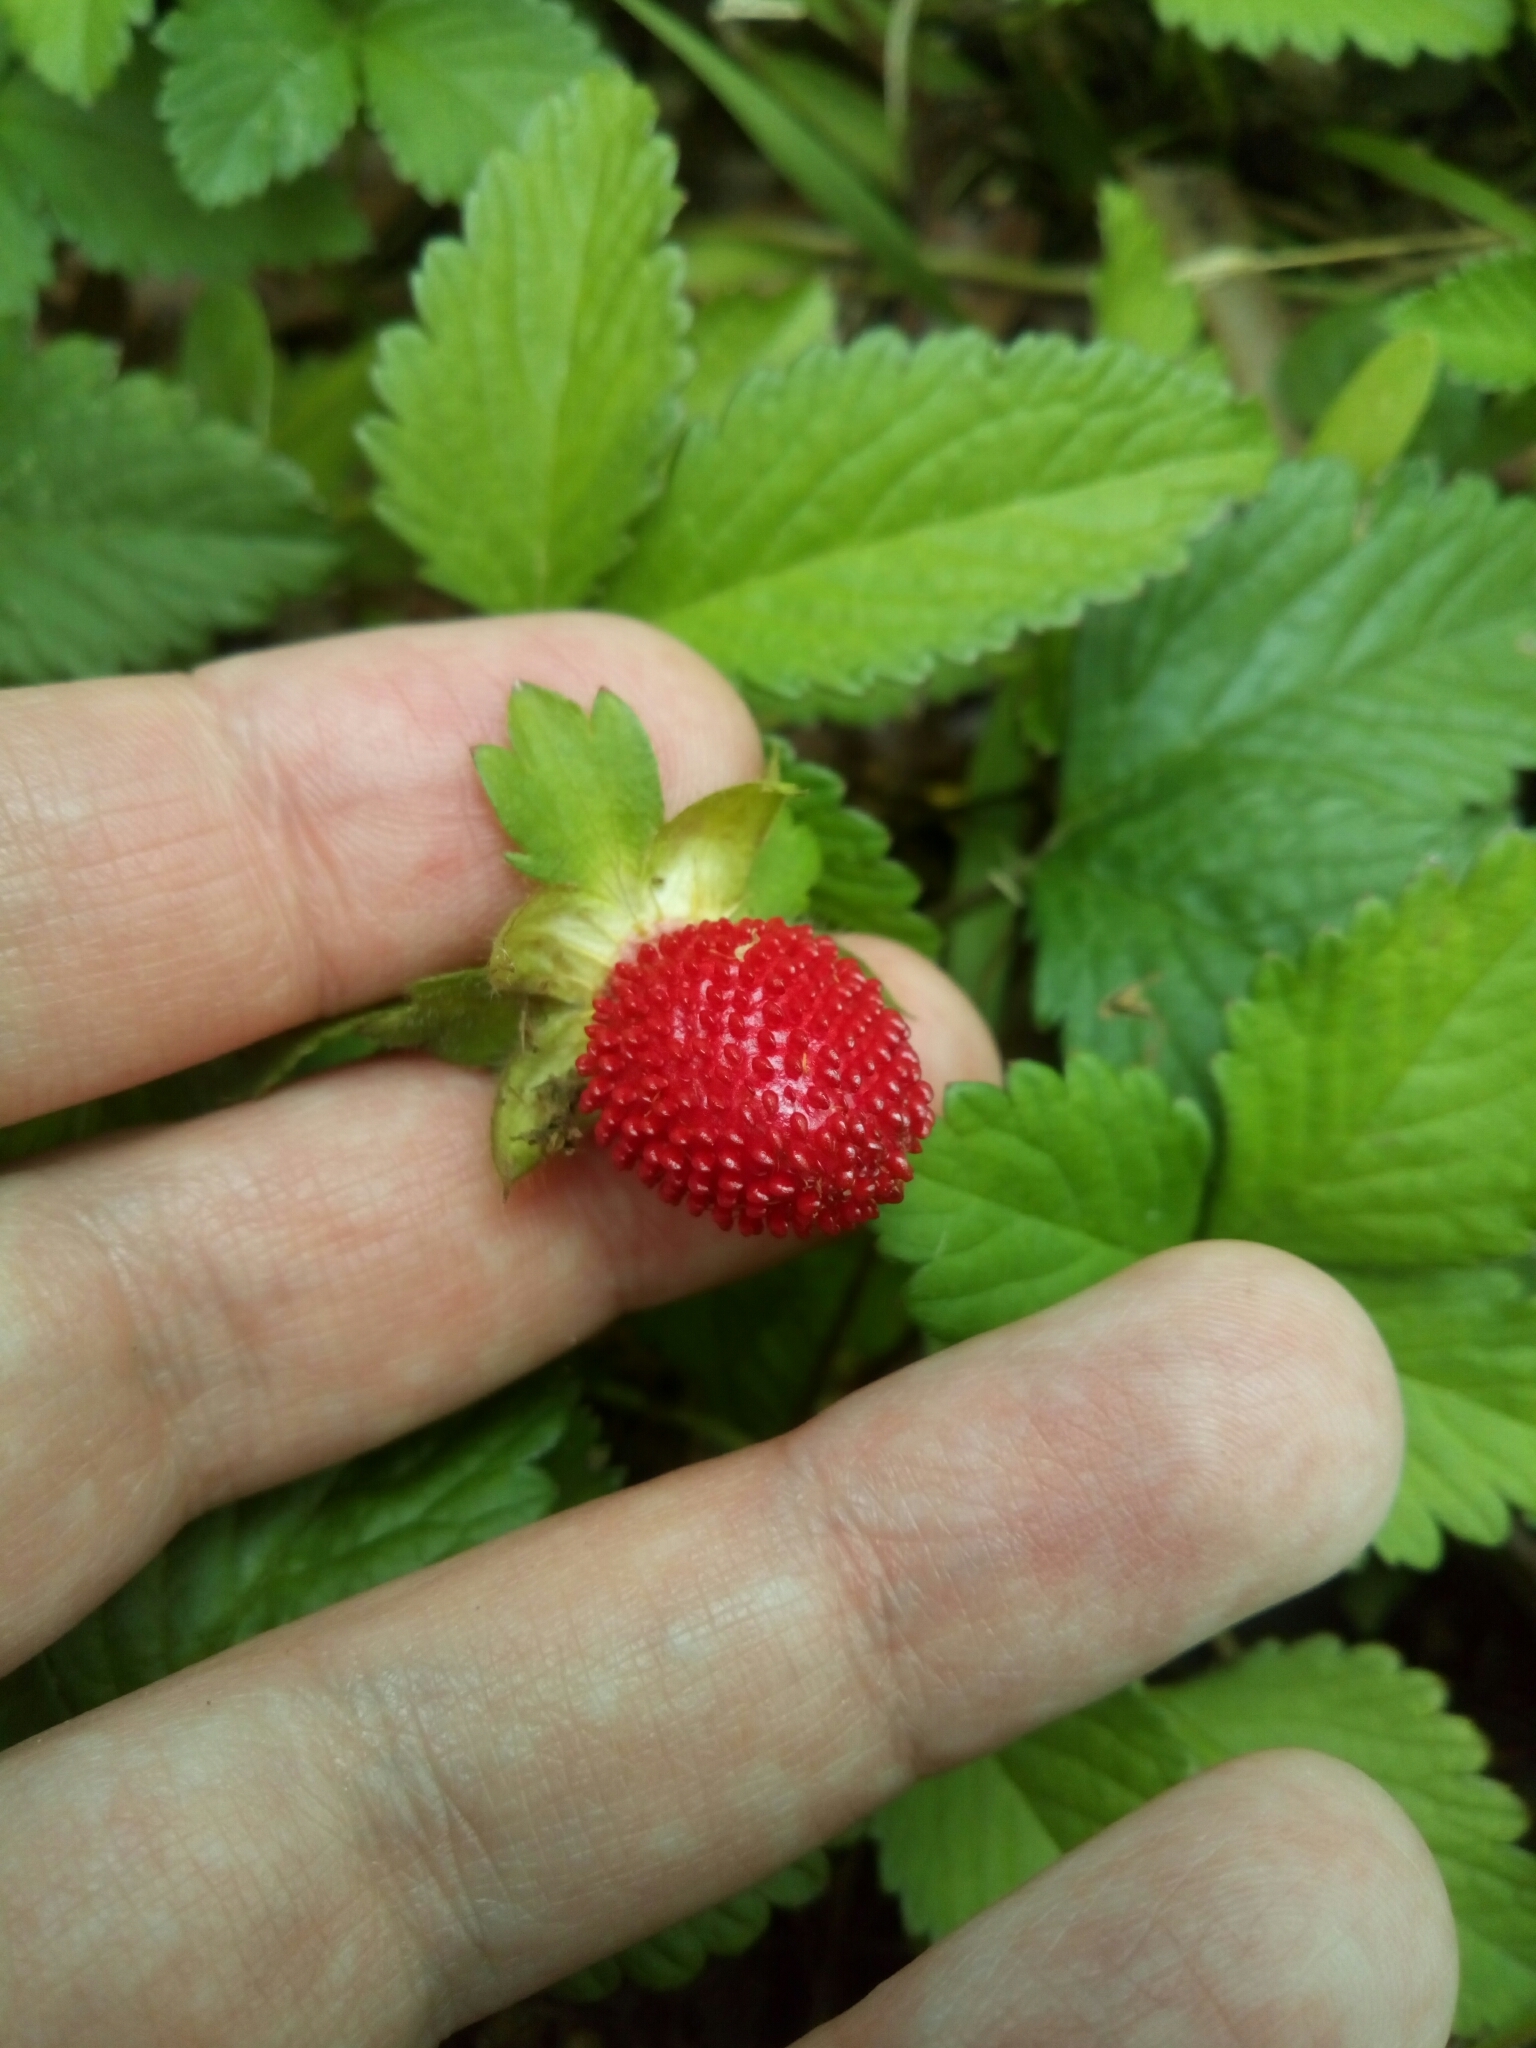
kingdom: Plantae
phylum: Tracheophyta
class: Magnoliopsida
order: Rosales
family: Rosaceae
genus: Potentilla
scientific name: Potentilla indica
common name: Yellow-flowered strawberry
